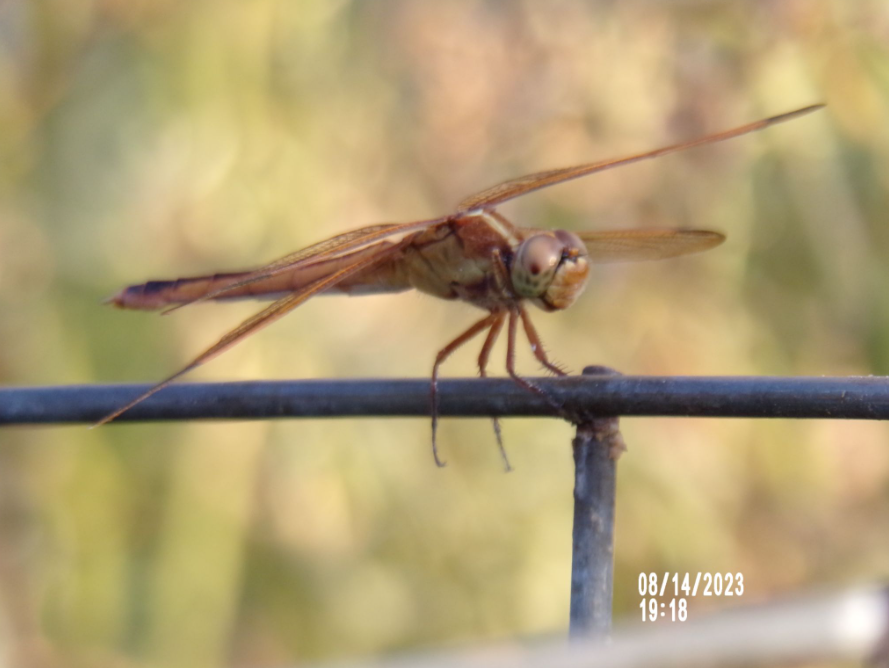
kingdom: Animalia
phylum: Arthropoda
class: Insecta
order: Odonata
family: Libellulidae
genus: Libellula
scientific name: Libellula needhami
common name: Needham's skimmer
